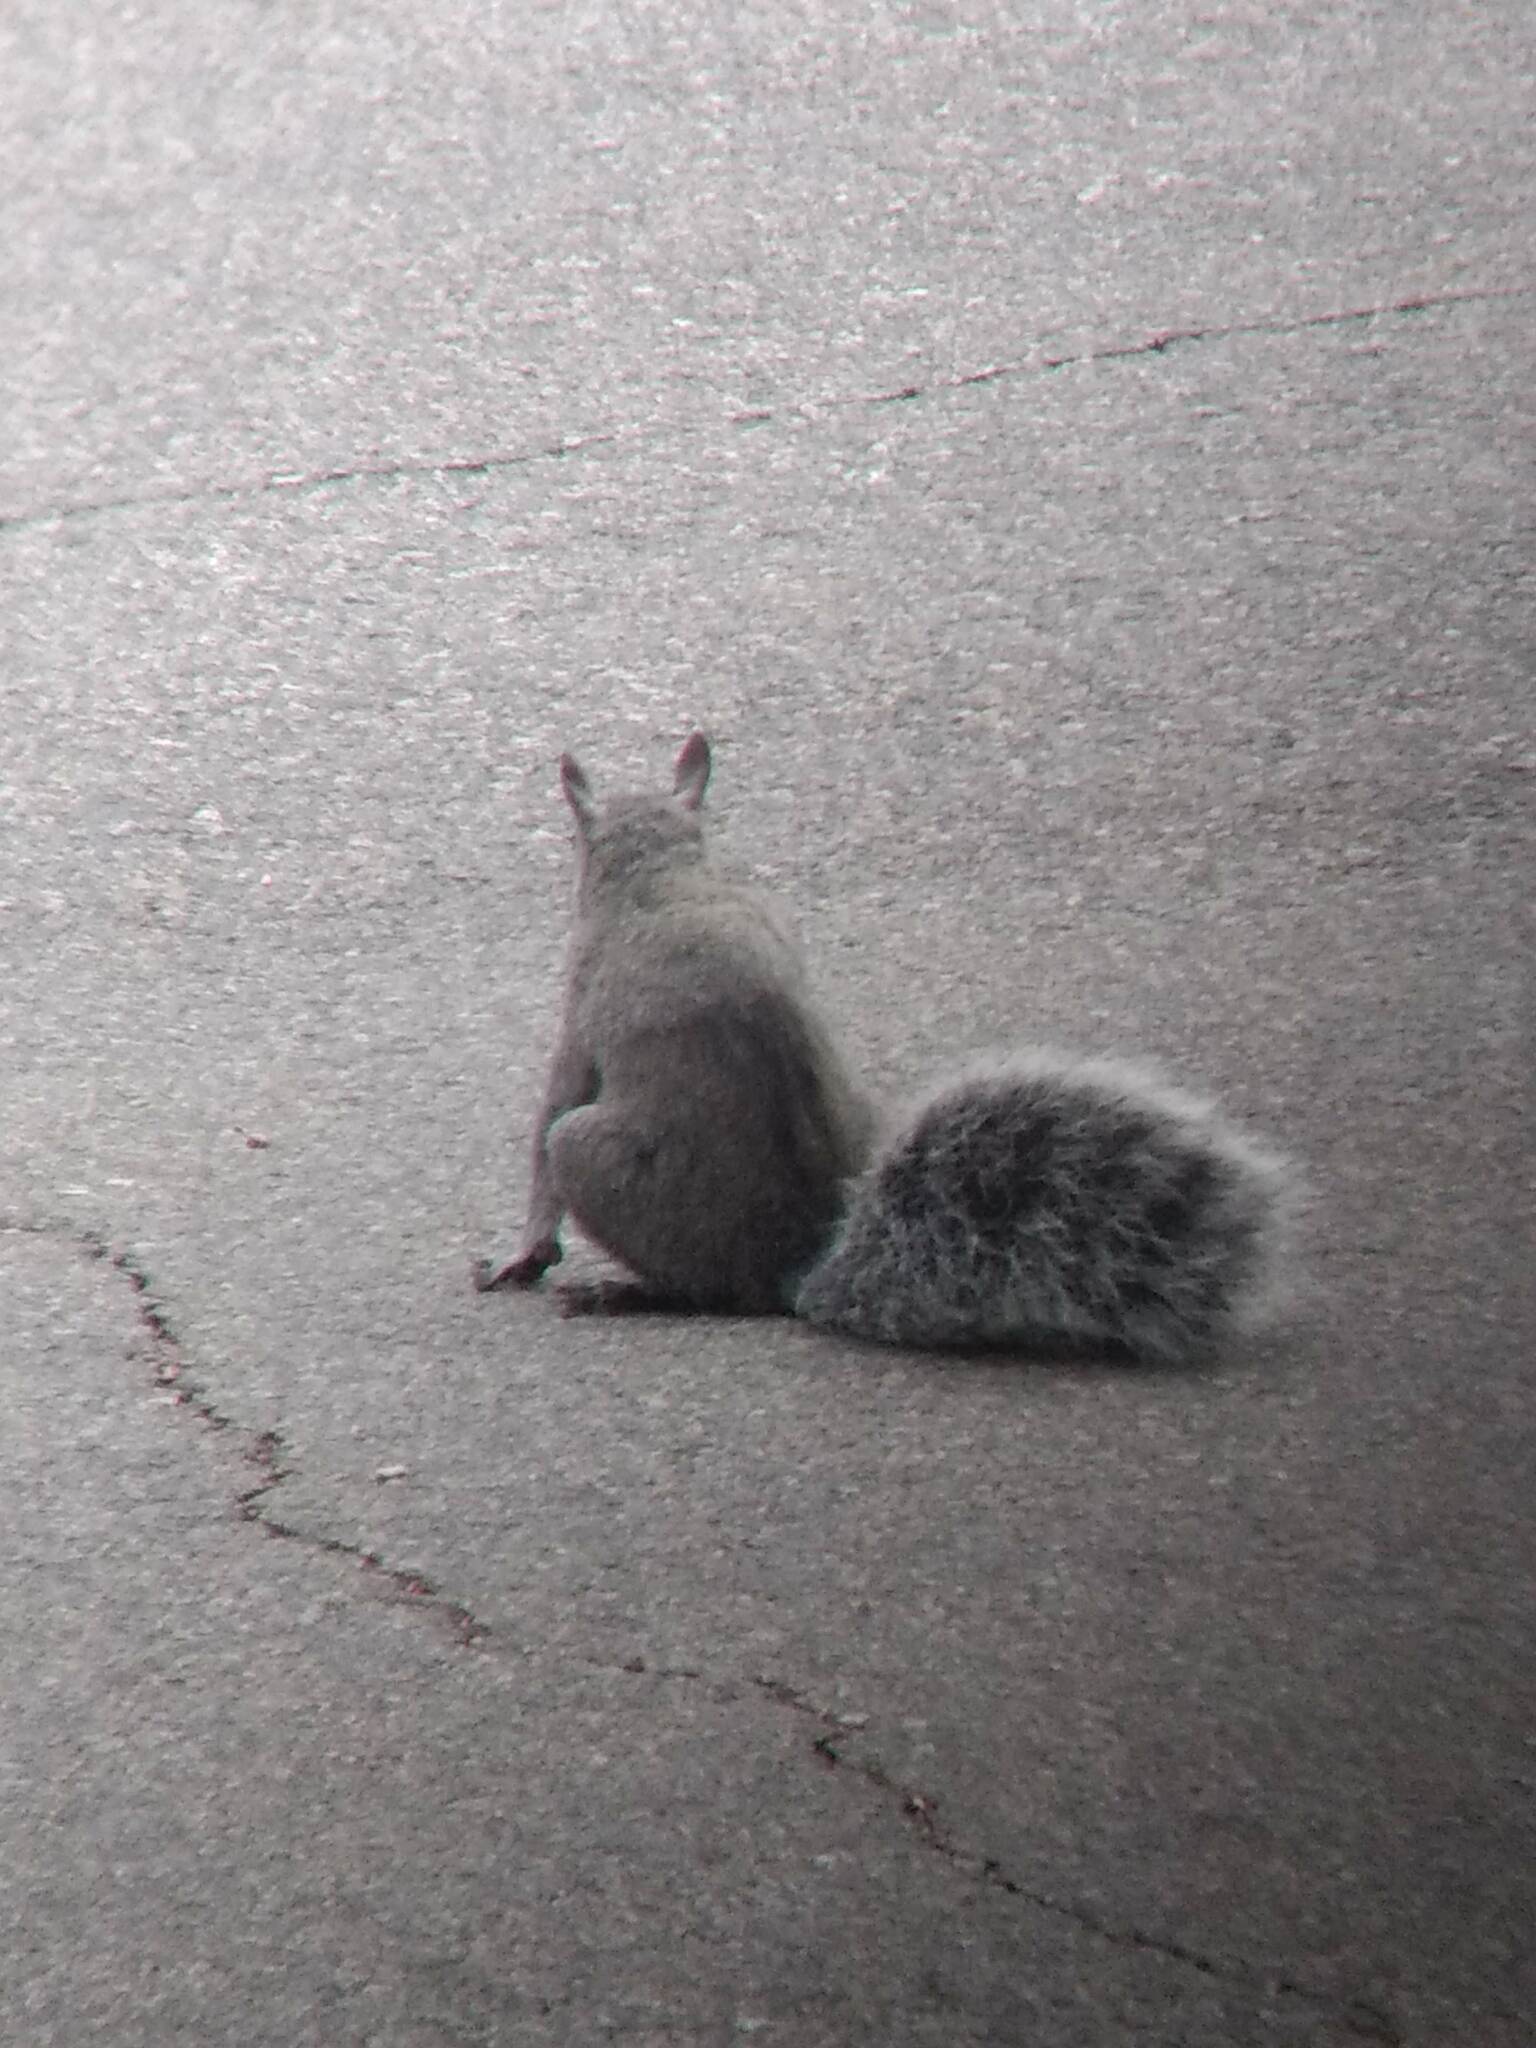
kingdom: Animalia
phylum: Chordata
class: Mammalia
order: Rodentia
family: Sciuridae
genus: Sciurus
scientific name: Sciurus griseus
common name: Western gray squirrel
